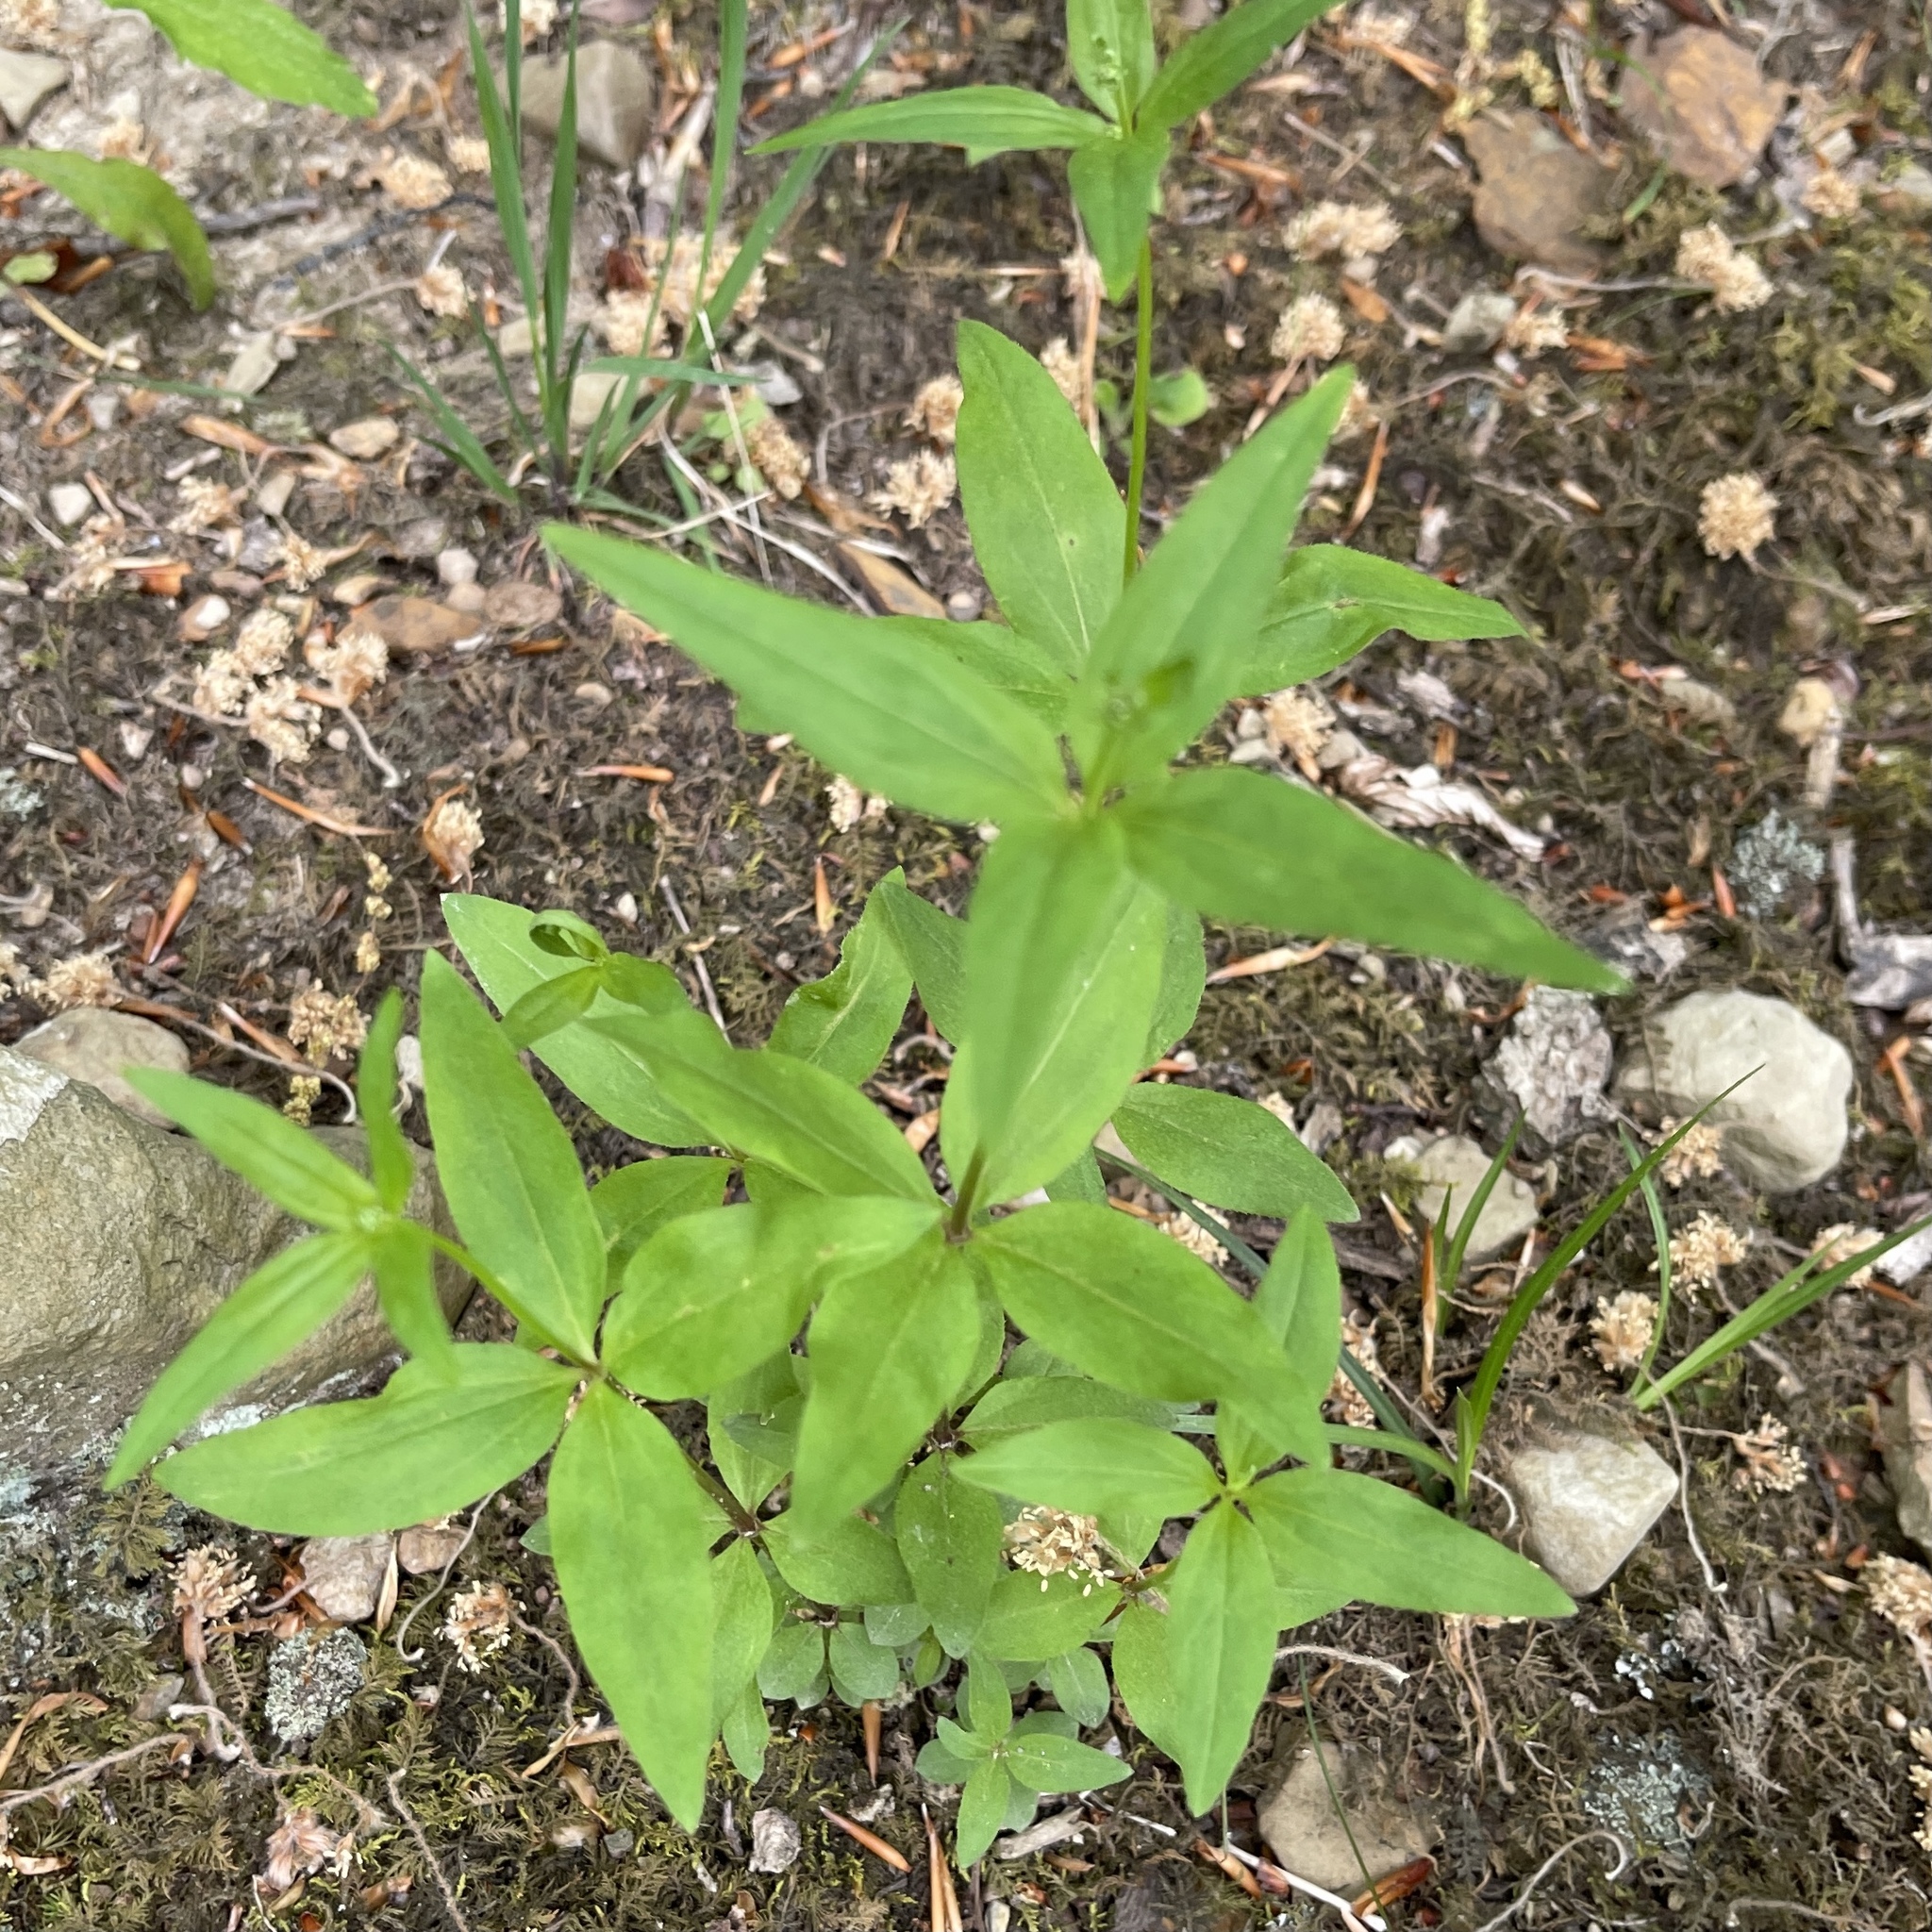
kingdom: Plantae
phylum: Tracheophyta
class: Magnoliopsida
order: Gentianales
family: Rubiaceae
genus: Galium
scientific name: Galium lanceolatum
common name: Lance-leaved wild licorice
